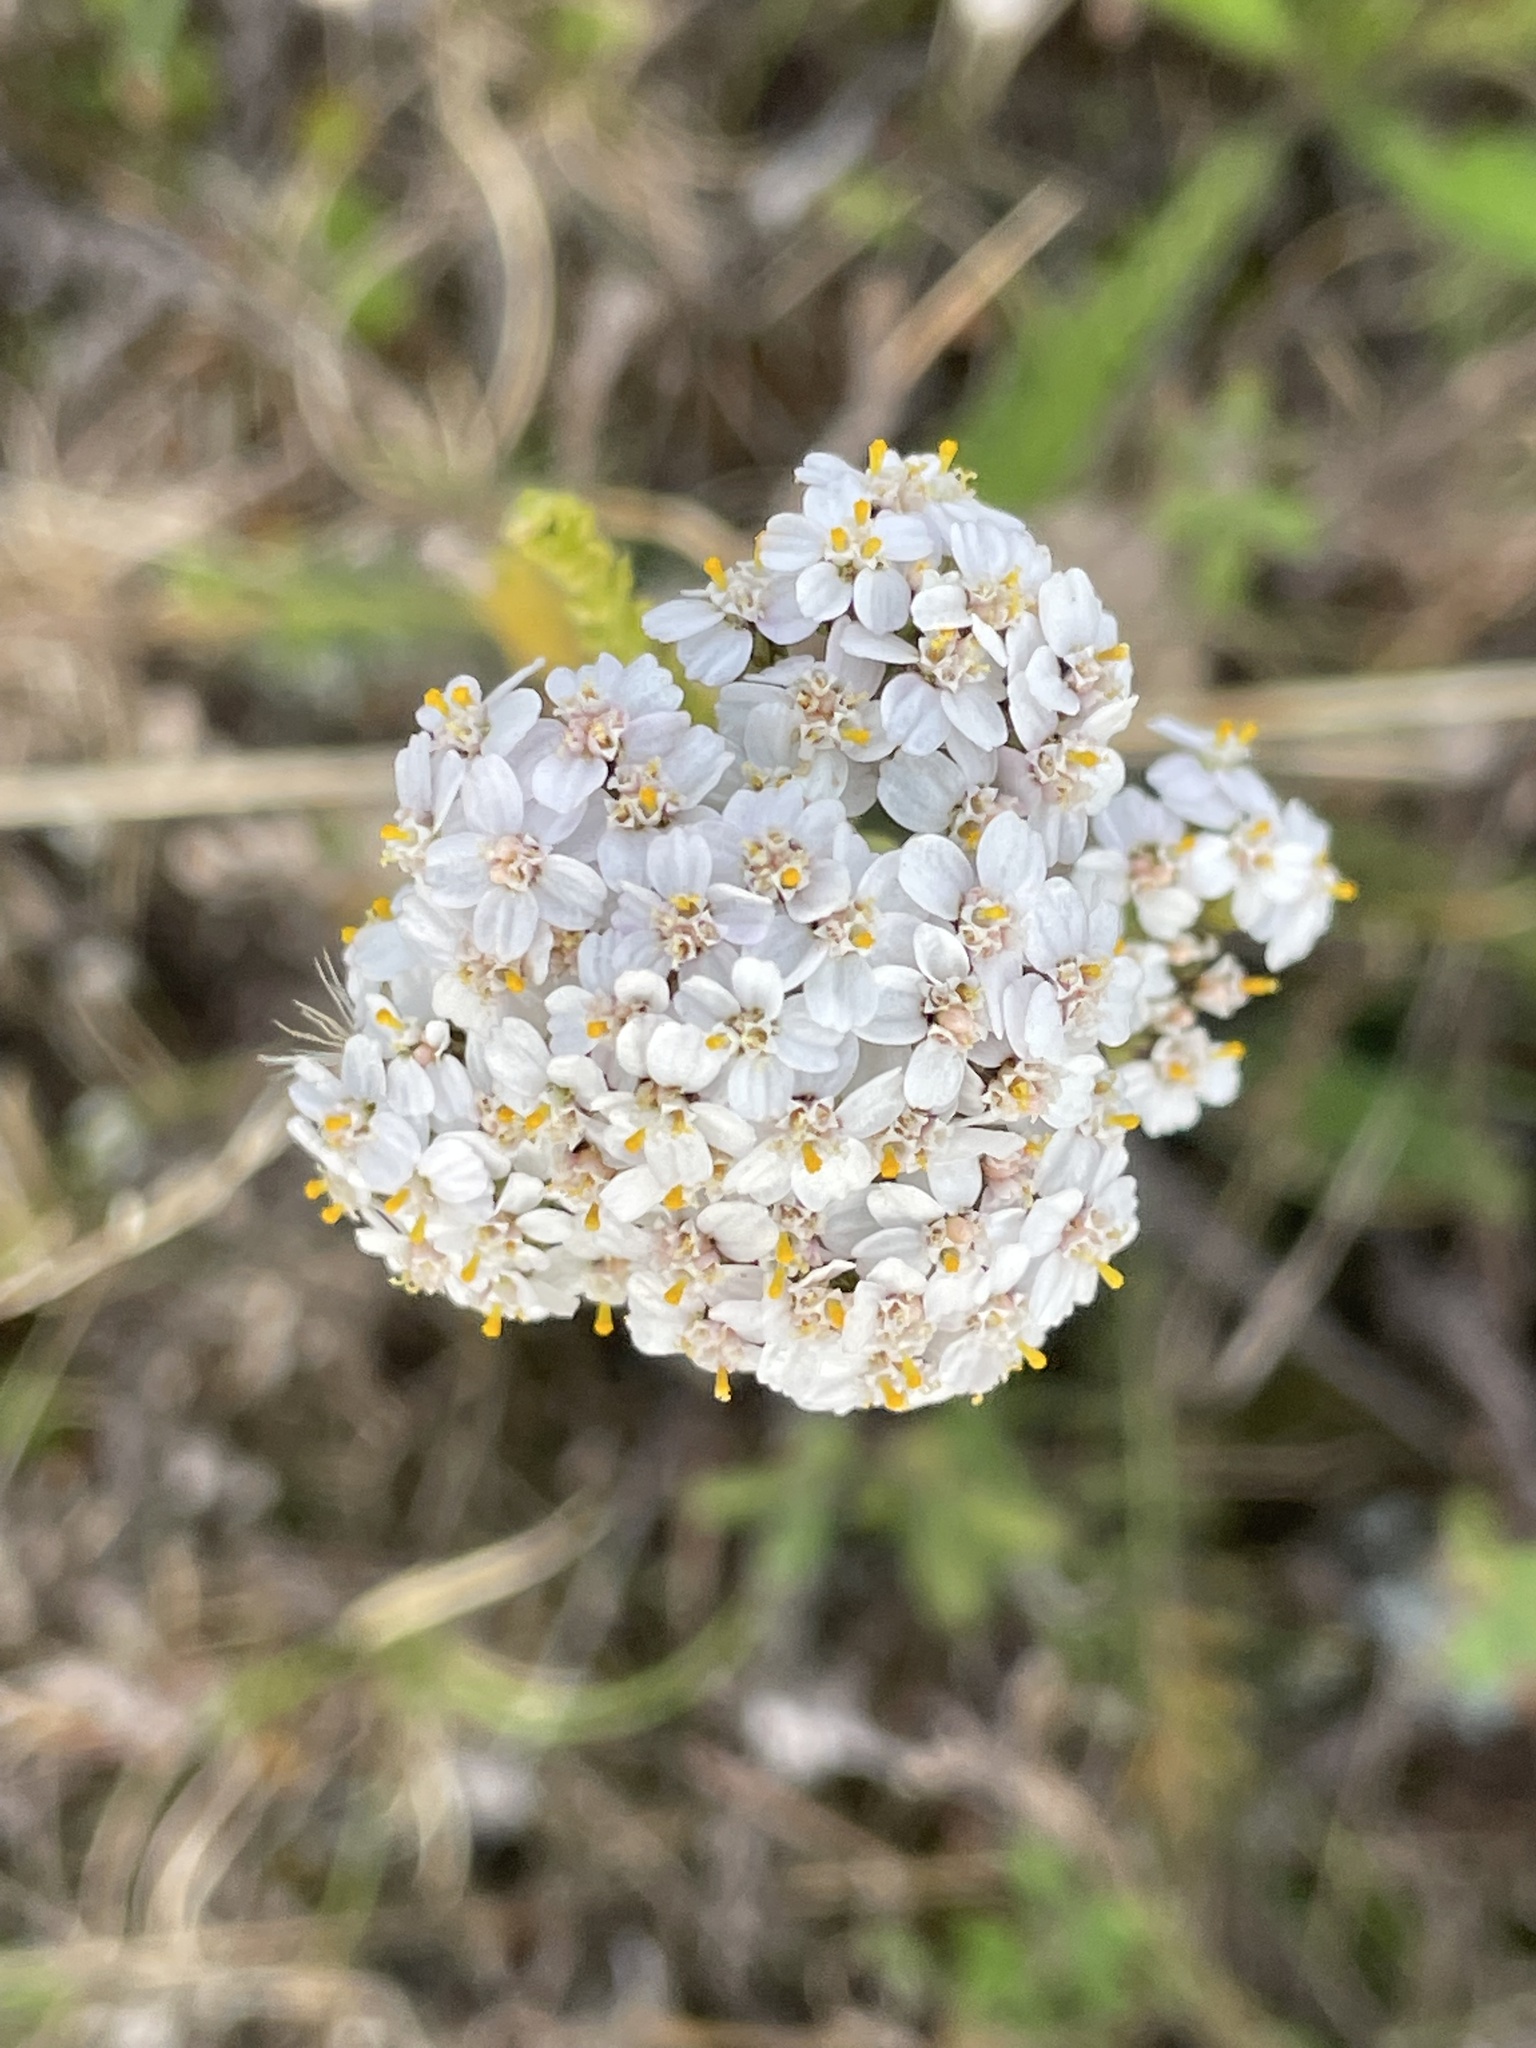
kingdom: Plantae
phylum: Tracheophyta
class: Magnoliopsida
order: Asterales
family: Asteraceae
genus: Achillea
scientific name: Achillea millefolium
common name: Yarrow
